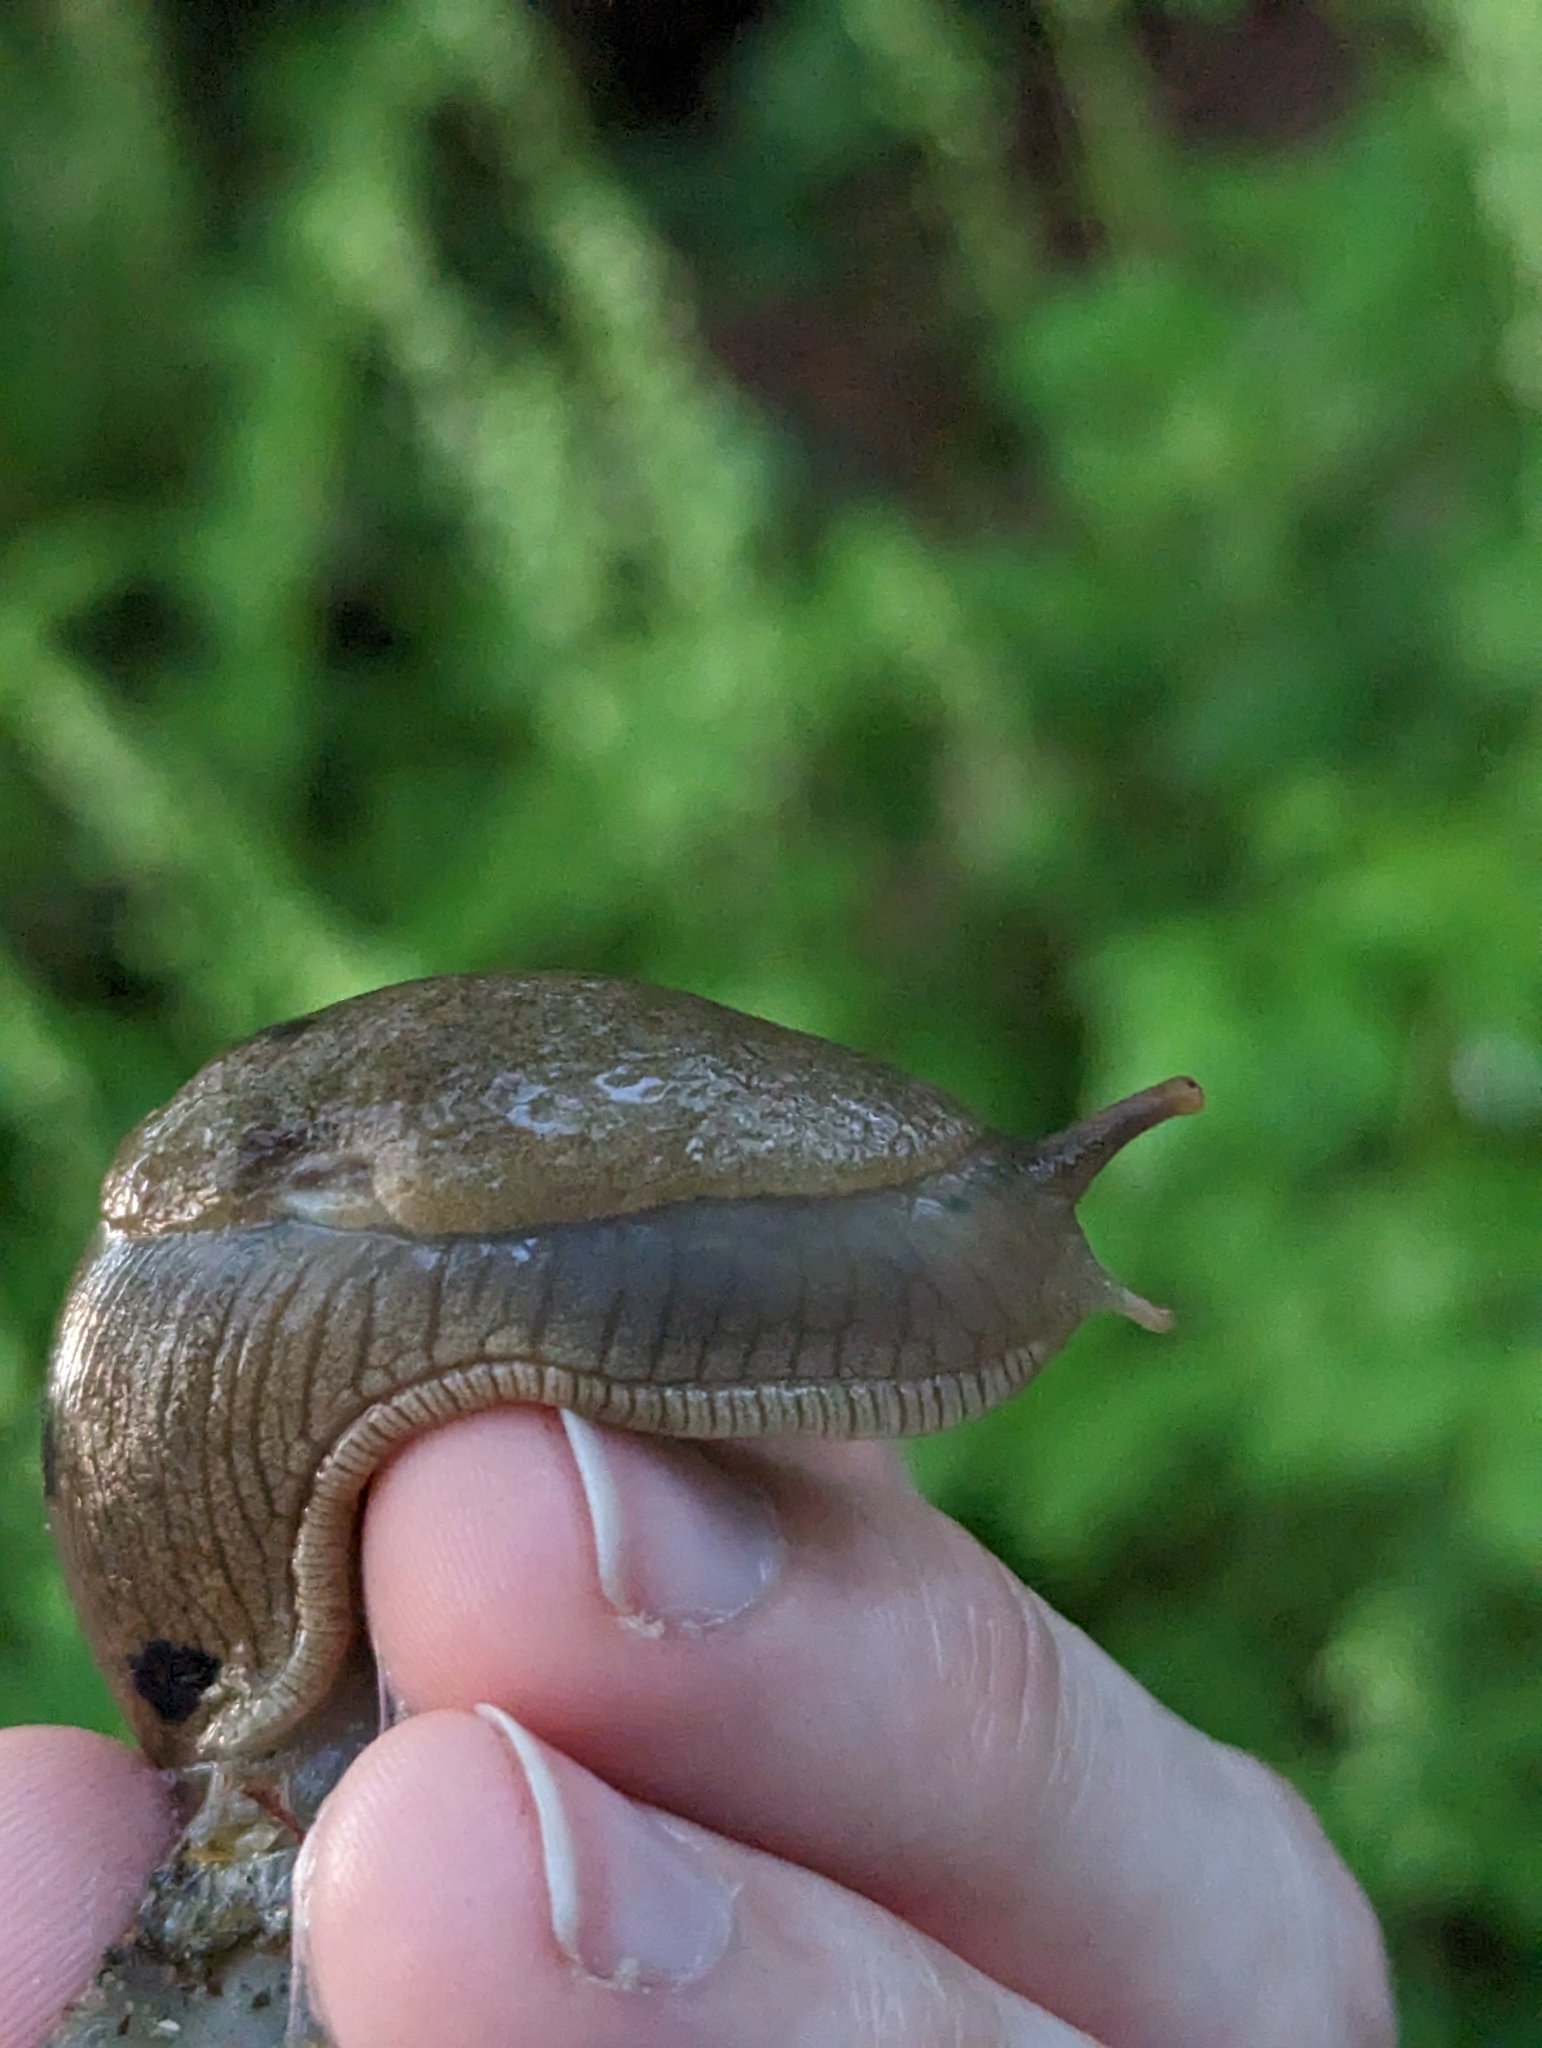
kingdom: Animalia
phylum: Mollusca
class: Gastropoda
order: Stylommatophora
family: Ariolimacidae
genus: Ariolimax
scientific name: Ariolimax columbianus
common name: Pacific banana slug
